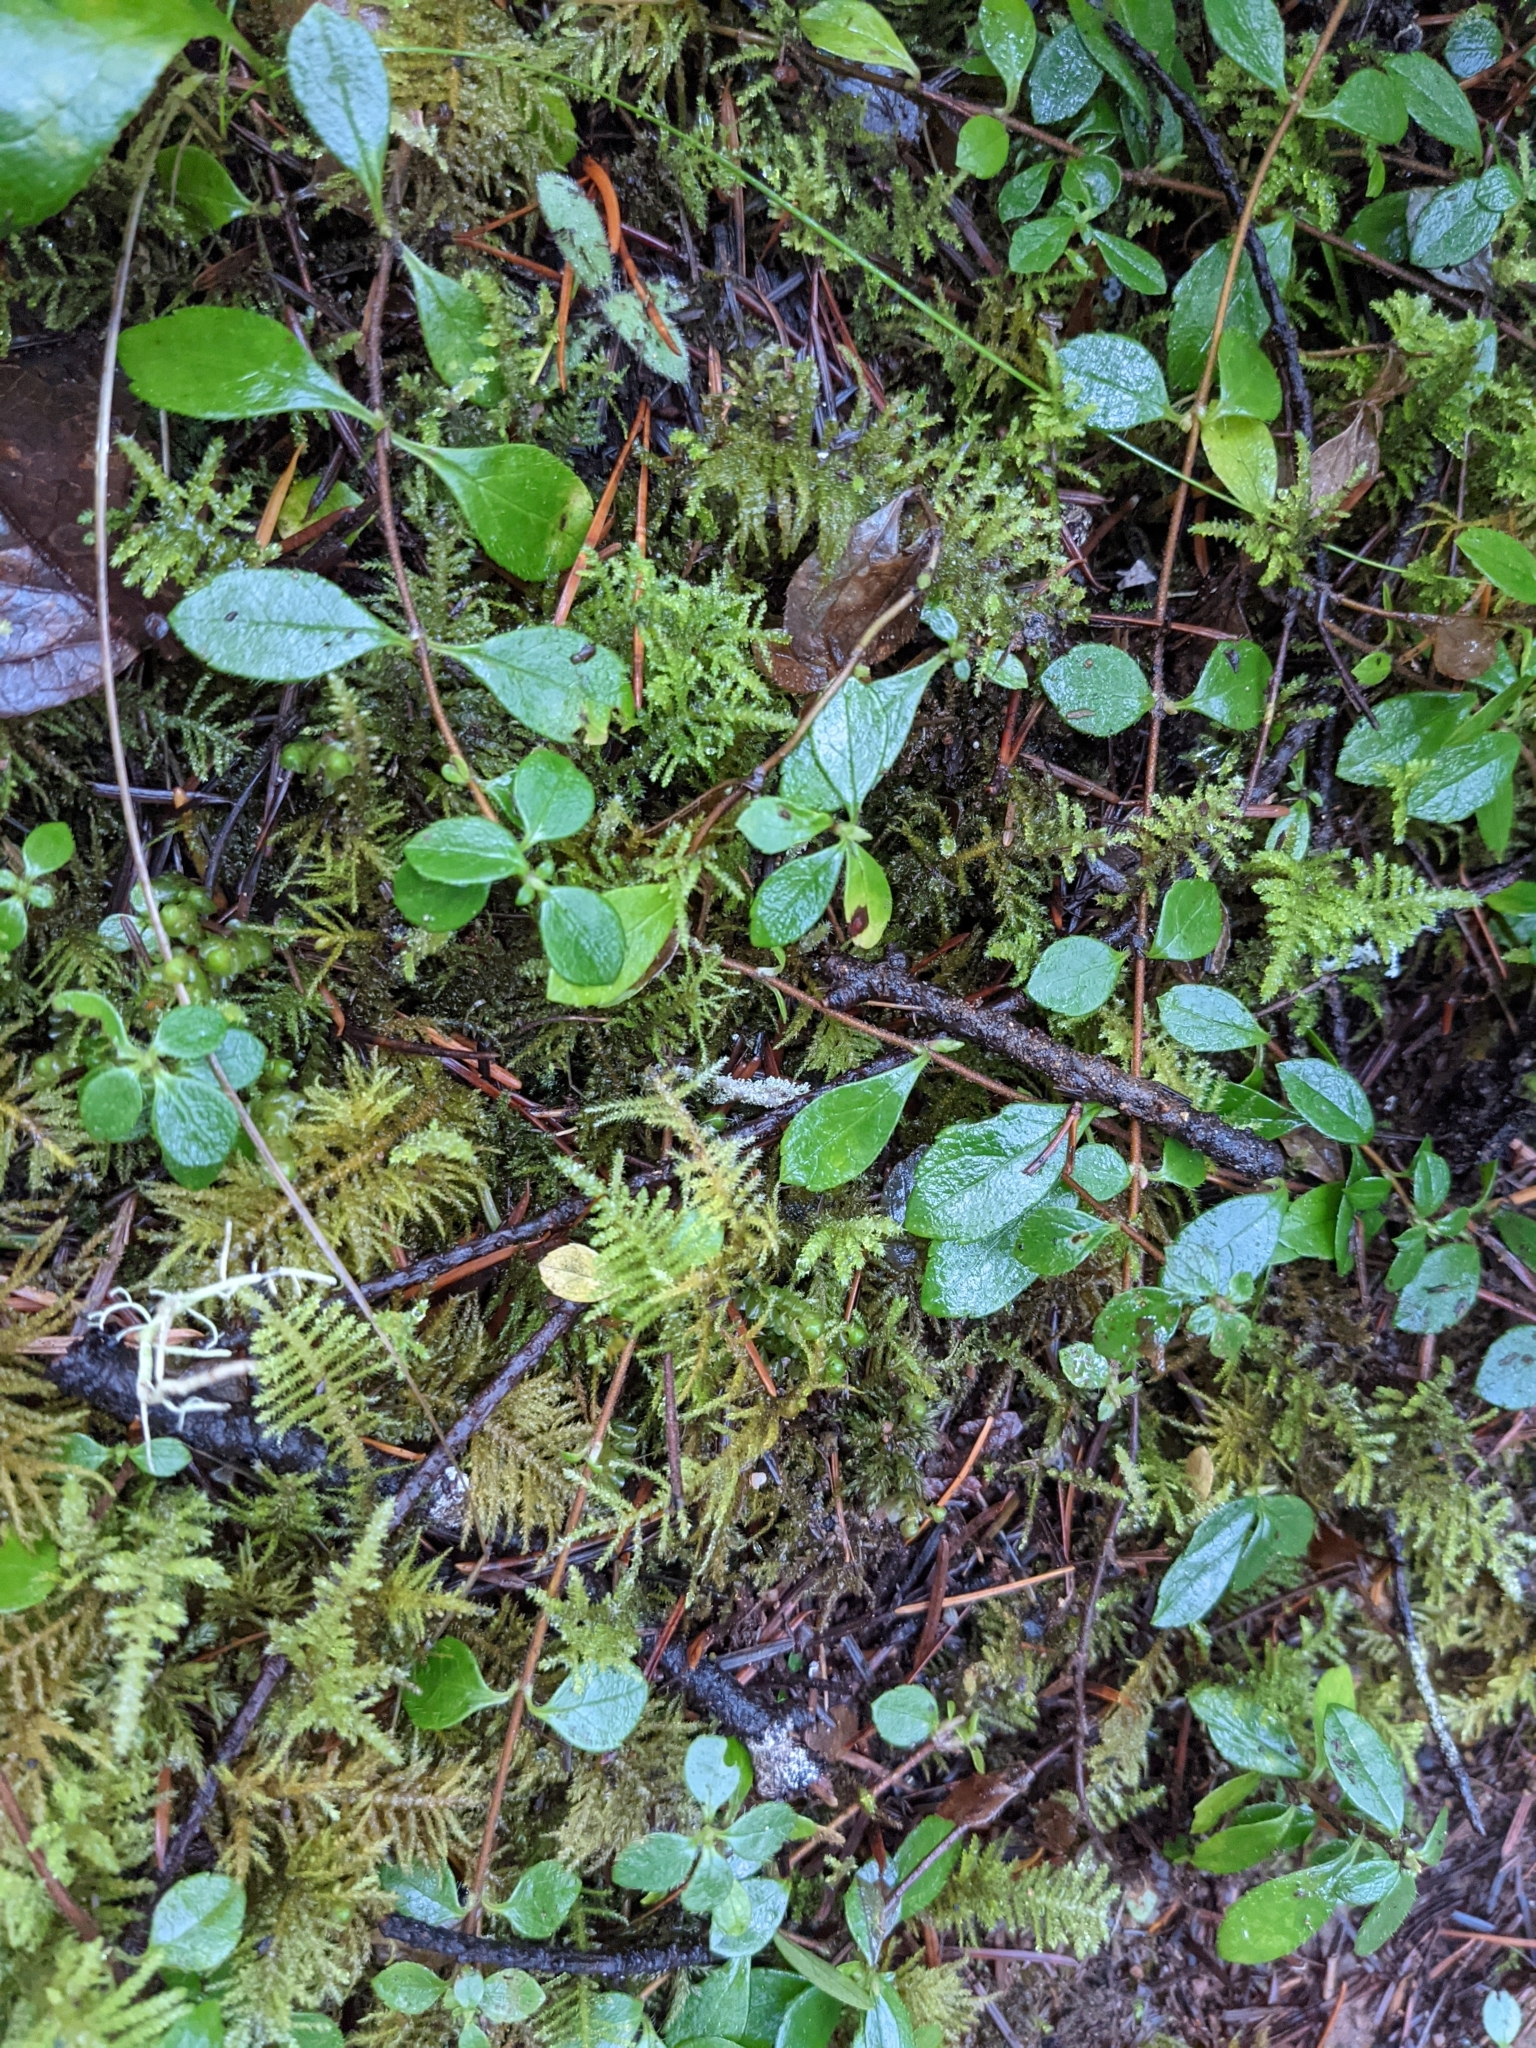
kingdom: Plantae
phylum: Tracheophyta
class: Magnoliopsida
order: Dipsacales
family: Caprifoliaceae
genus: Linnaea
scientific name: Linnaea borealis
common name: Twinflower
